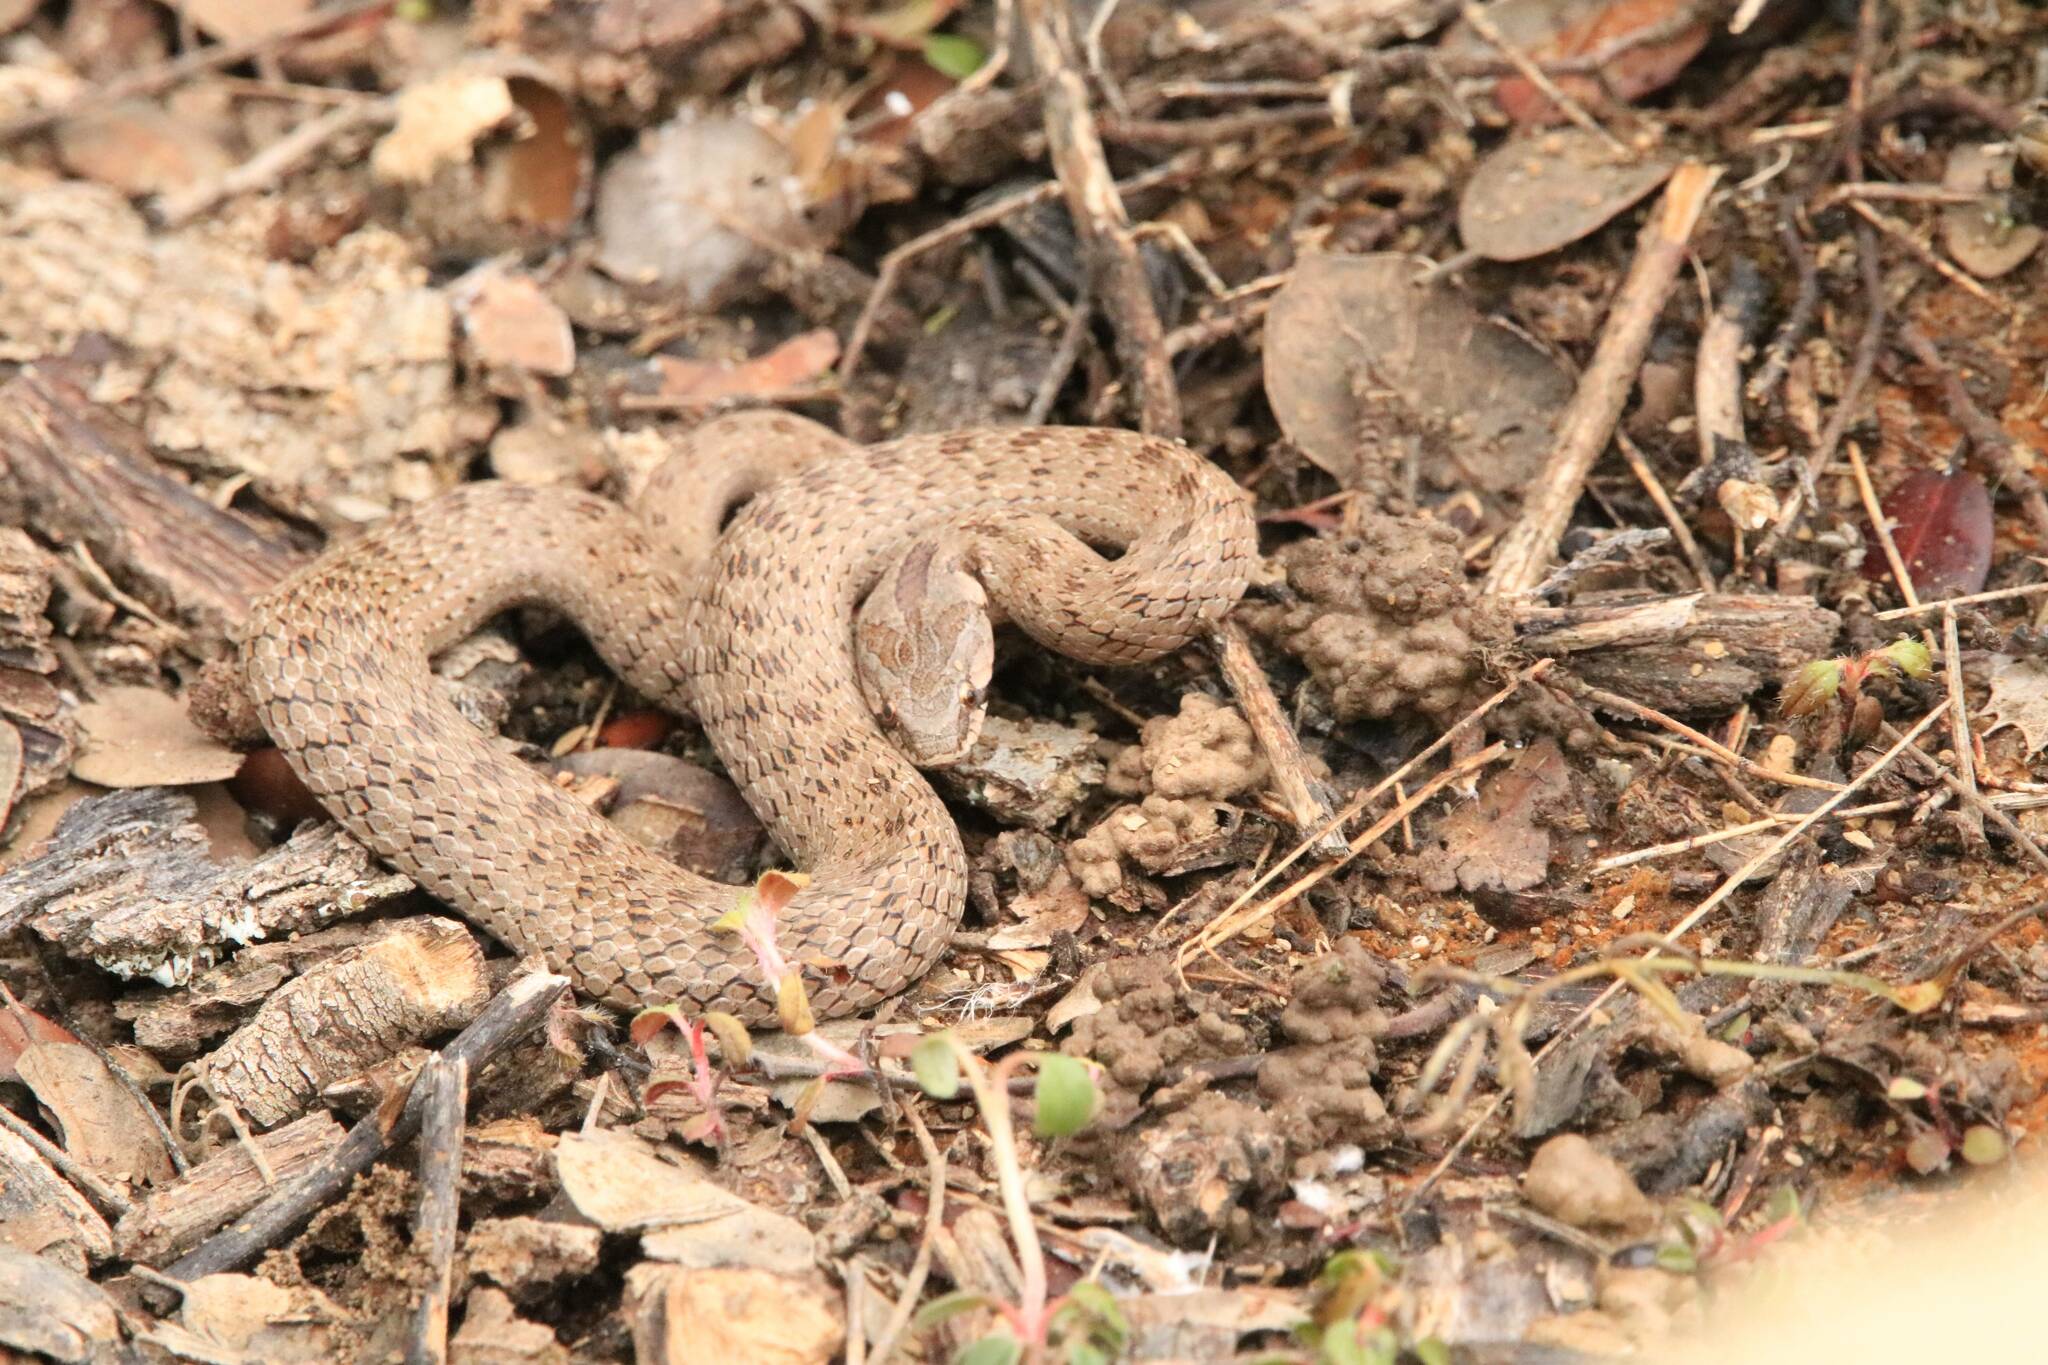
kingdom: Animalia
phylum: Chordata
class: Squamata
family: Colubridae
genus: Macroprotodon
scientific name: Macroprotodon mauritanicus
